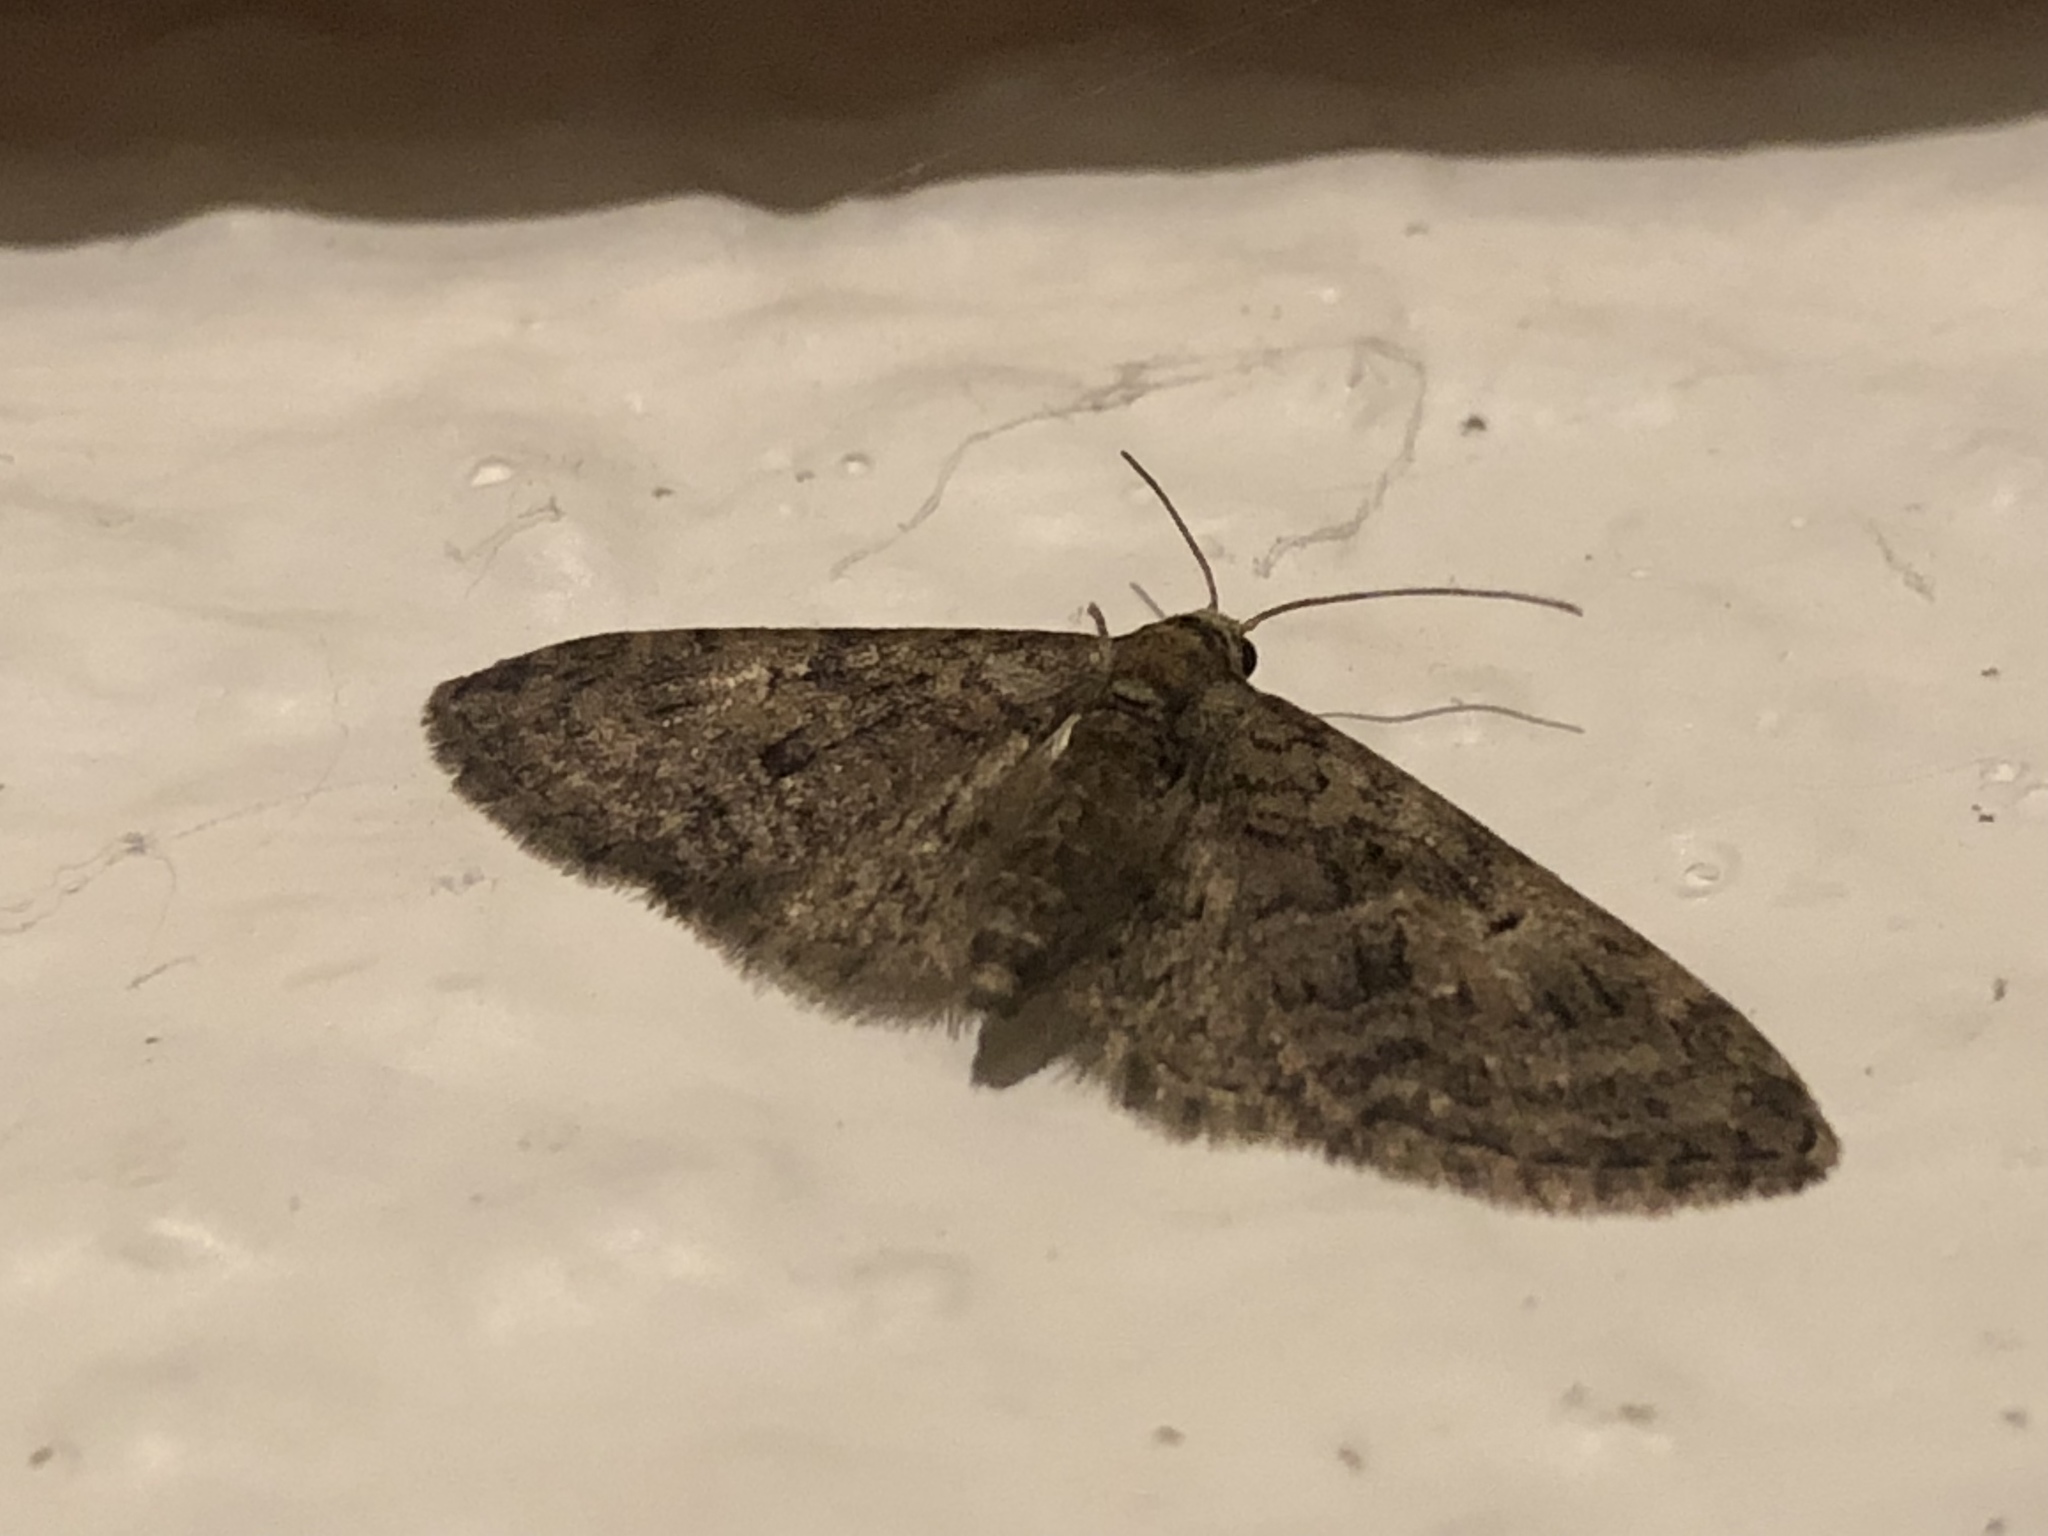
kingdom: Animalia
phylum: Arthropoda
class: Insecta
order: Lepidoptera
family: Geometridae
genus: Eupithecia
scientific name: Eupithecia abbreviata
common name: Brindled pug
